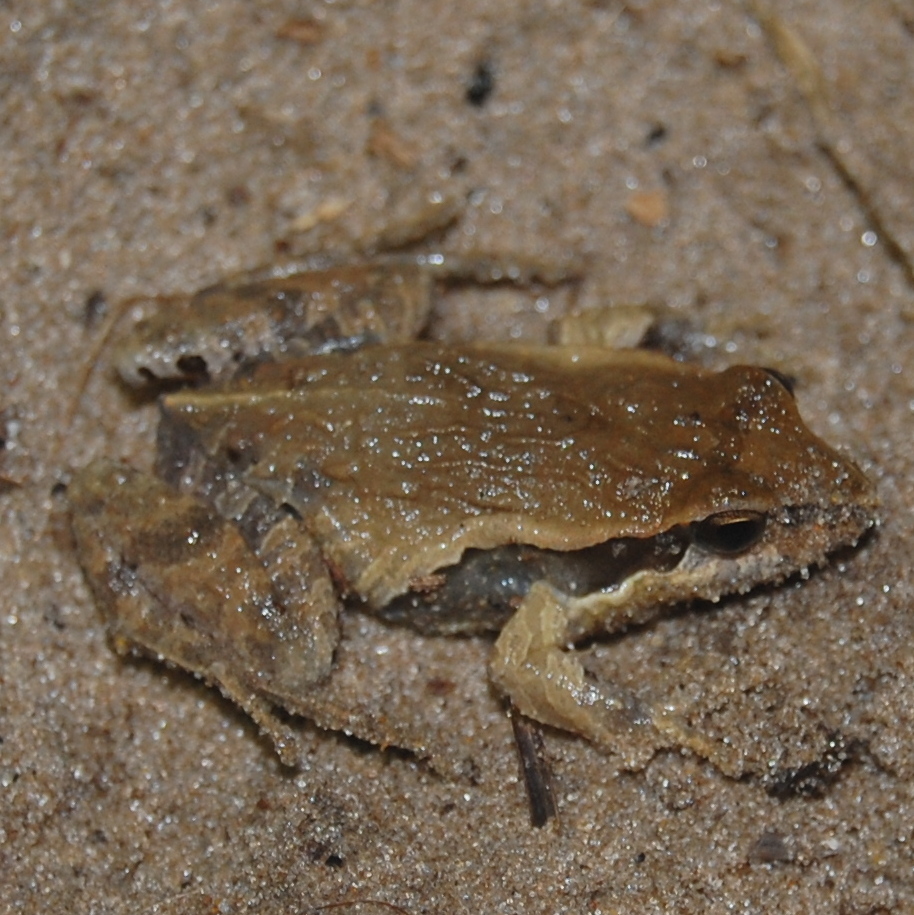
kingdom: Animalia
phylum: Chordata
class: Amphibia
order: Anura
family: Leptodactylidae
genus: Physalaemus
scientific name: Physalaemus gracilis
